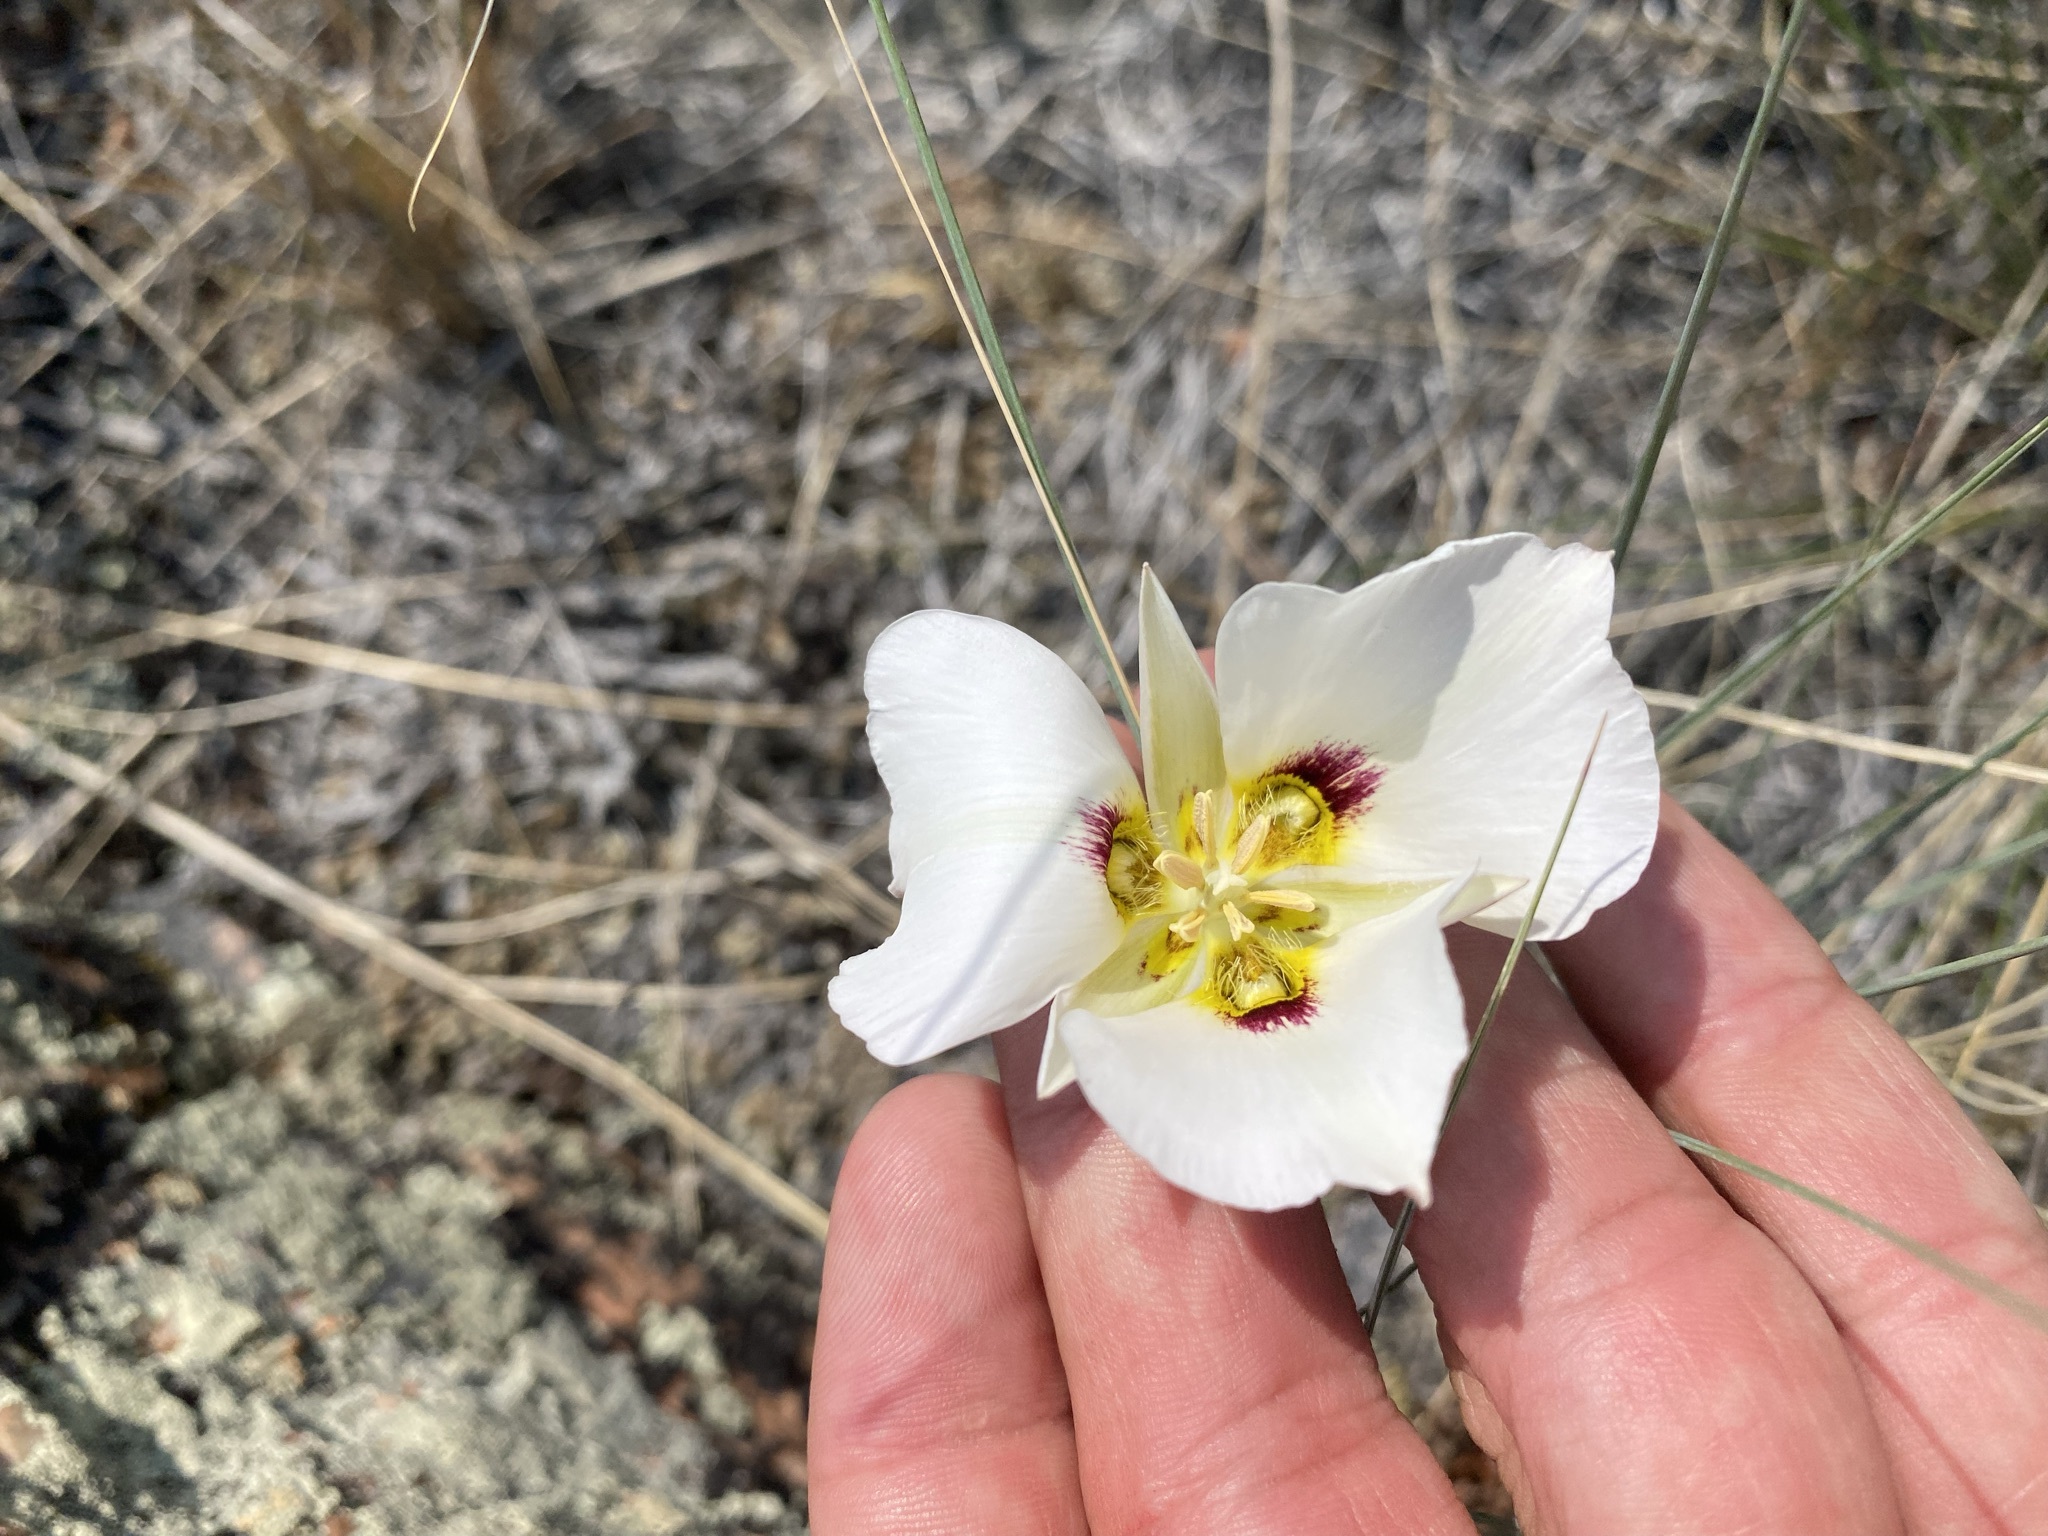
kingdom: Plantae
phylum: Tracheophyta
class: Liliopsida
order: Liliales
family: Liliaceae
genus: Calochortus
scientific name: Calochortus nuttallii
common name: Sego-lily
